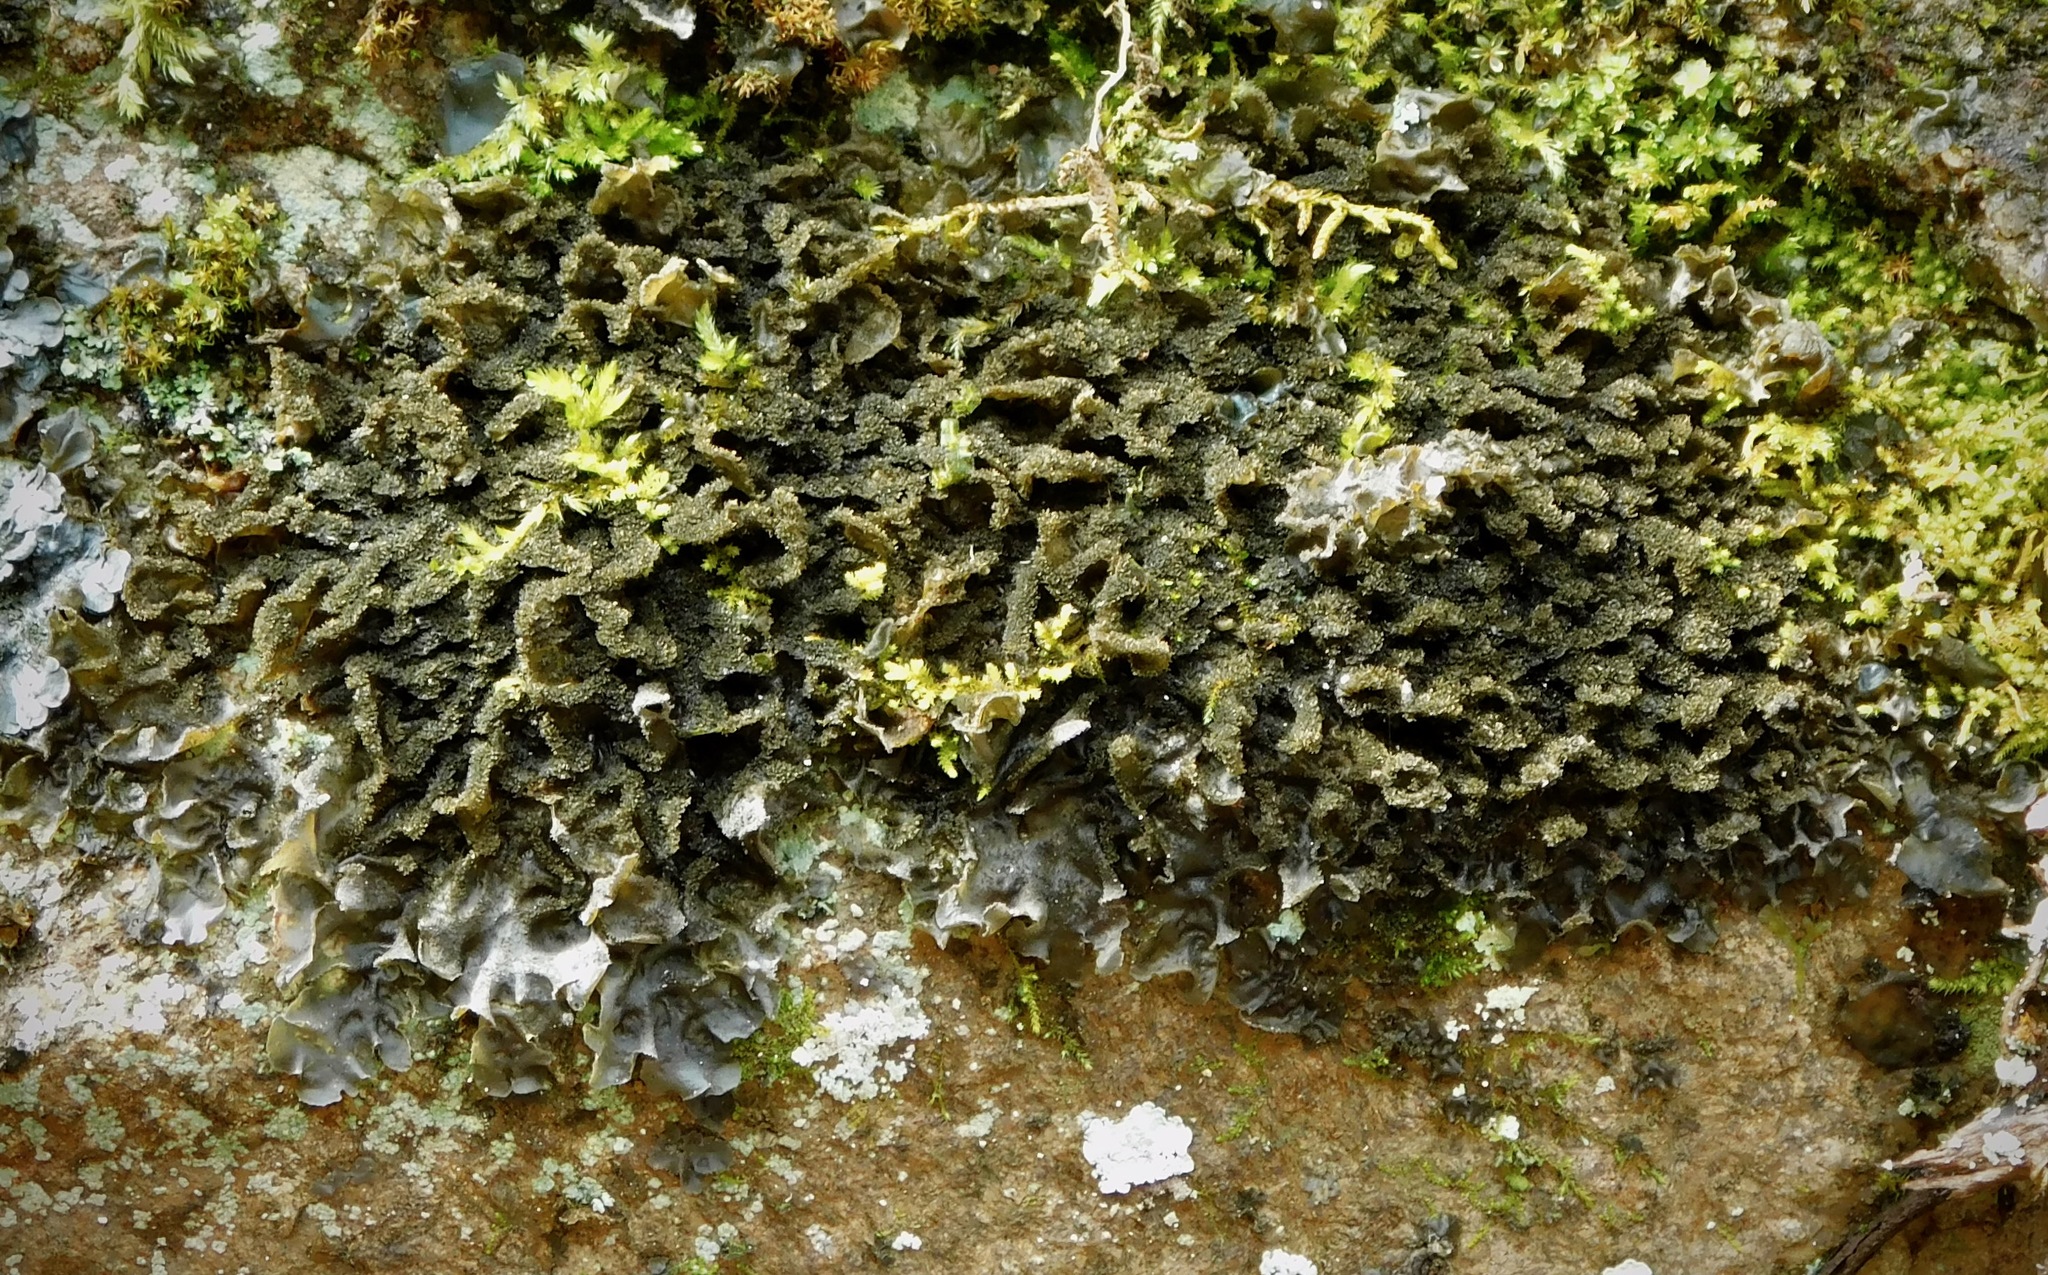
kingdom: Fungi
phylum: Ascomycota
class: Lecanoromycetes
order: Peltigerales
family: Collemataceae
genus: Collema
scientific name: Collema subflaccidum
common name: Tree jelly
